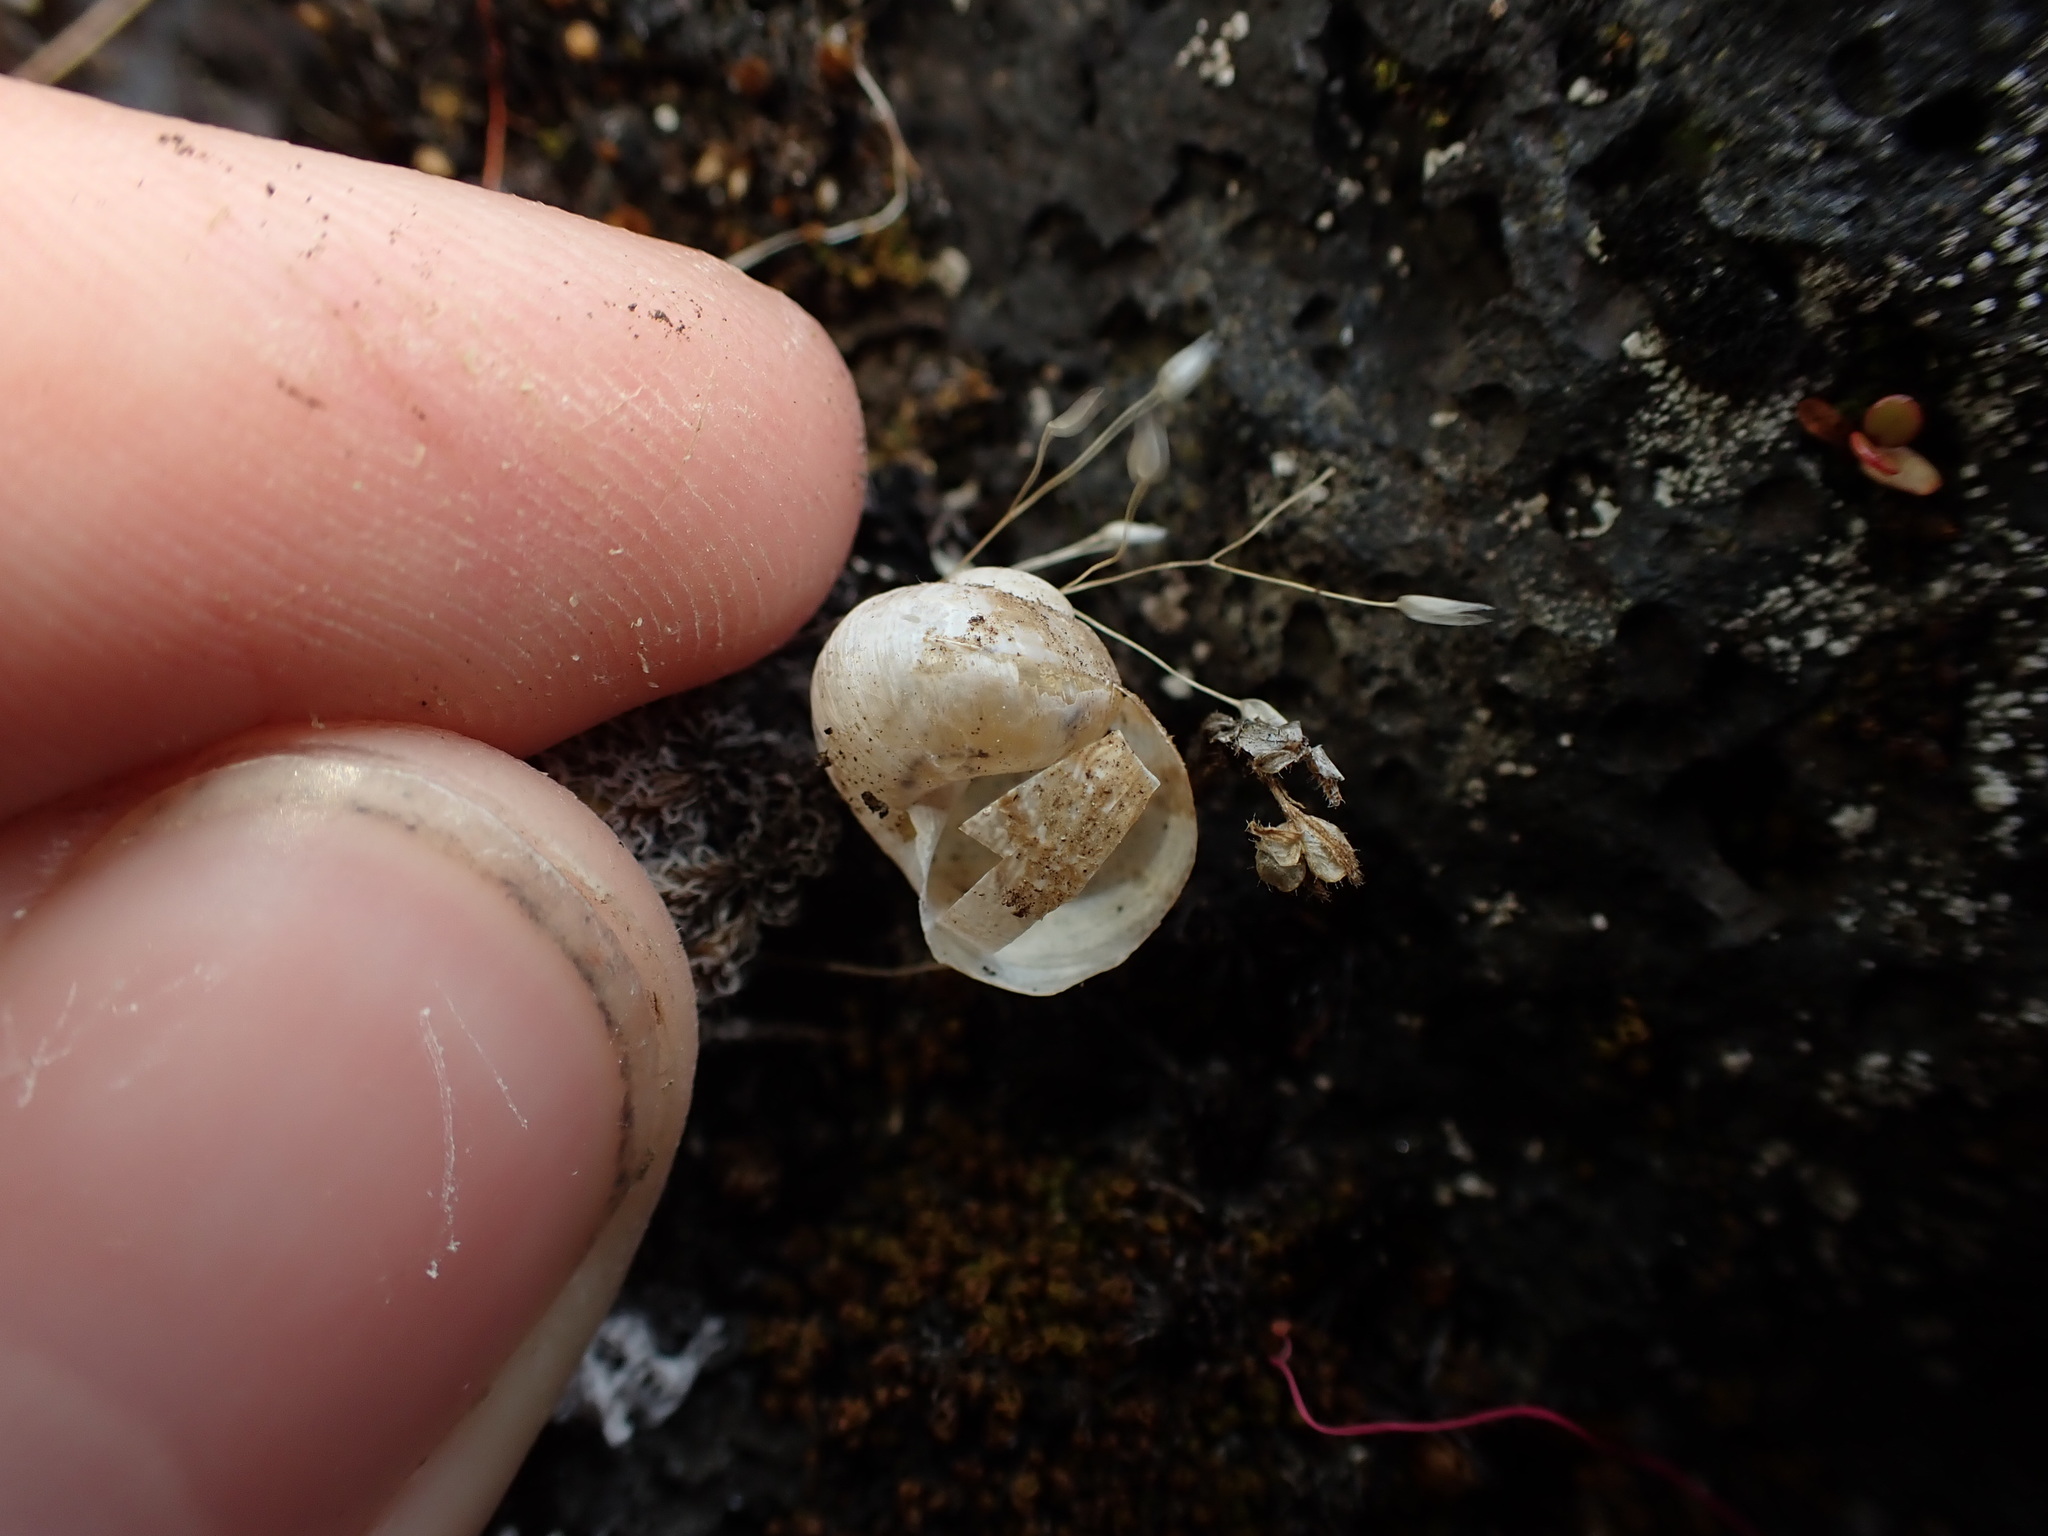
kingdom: Animalia
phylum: Mollusca
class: Gastropoda
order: Stylommatophora
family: Helicidae
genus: Cornu
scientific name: Cornu aspersum
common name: Brown garden snail
